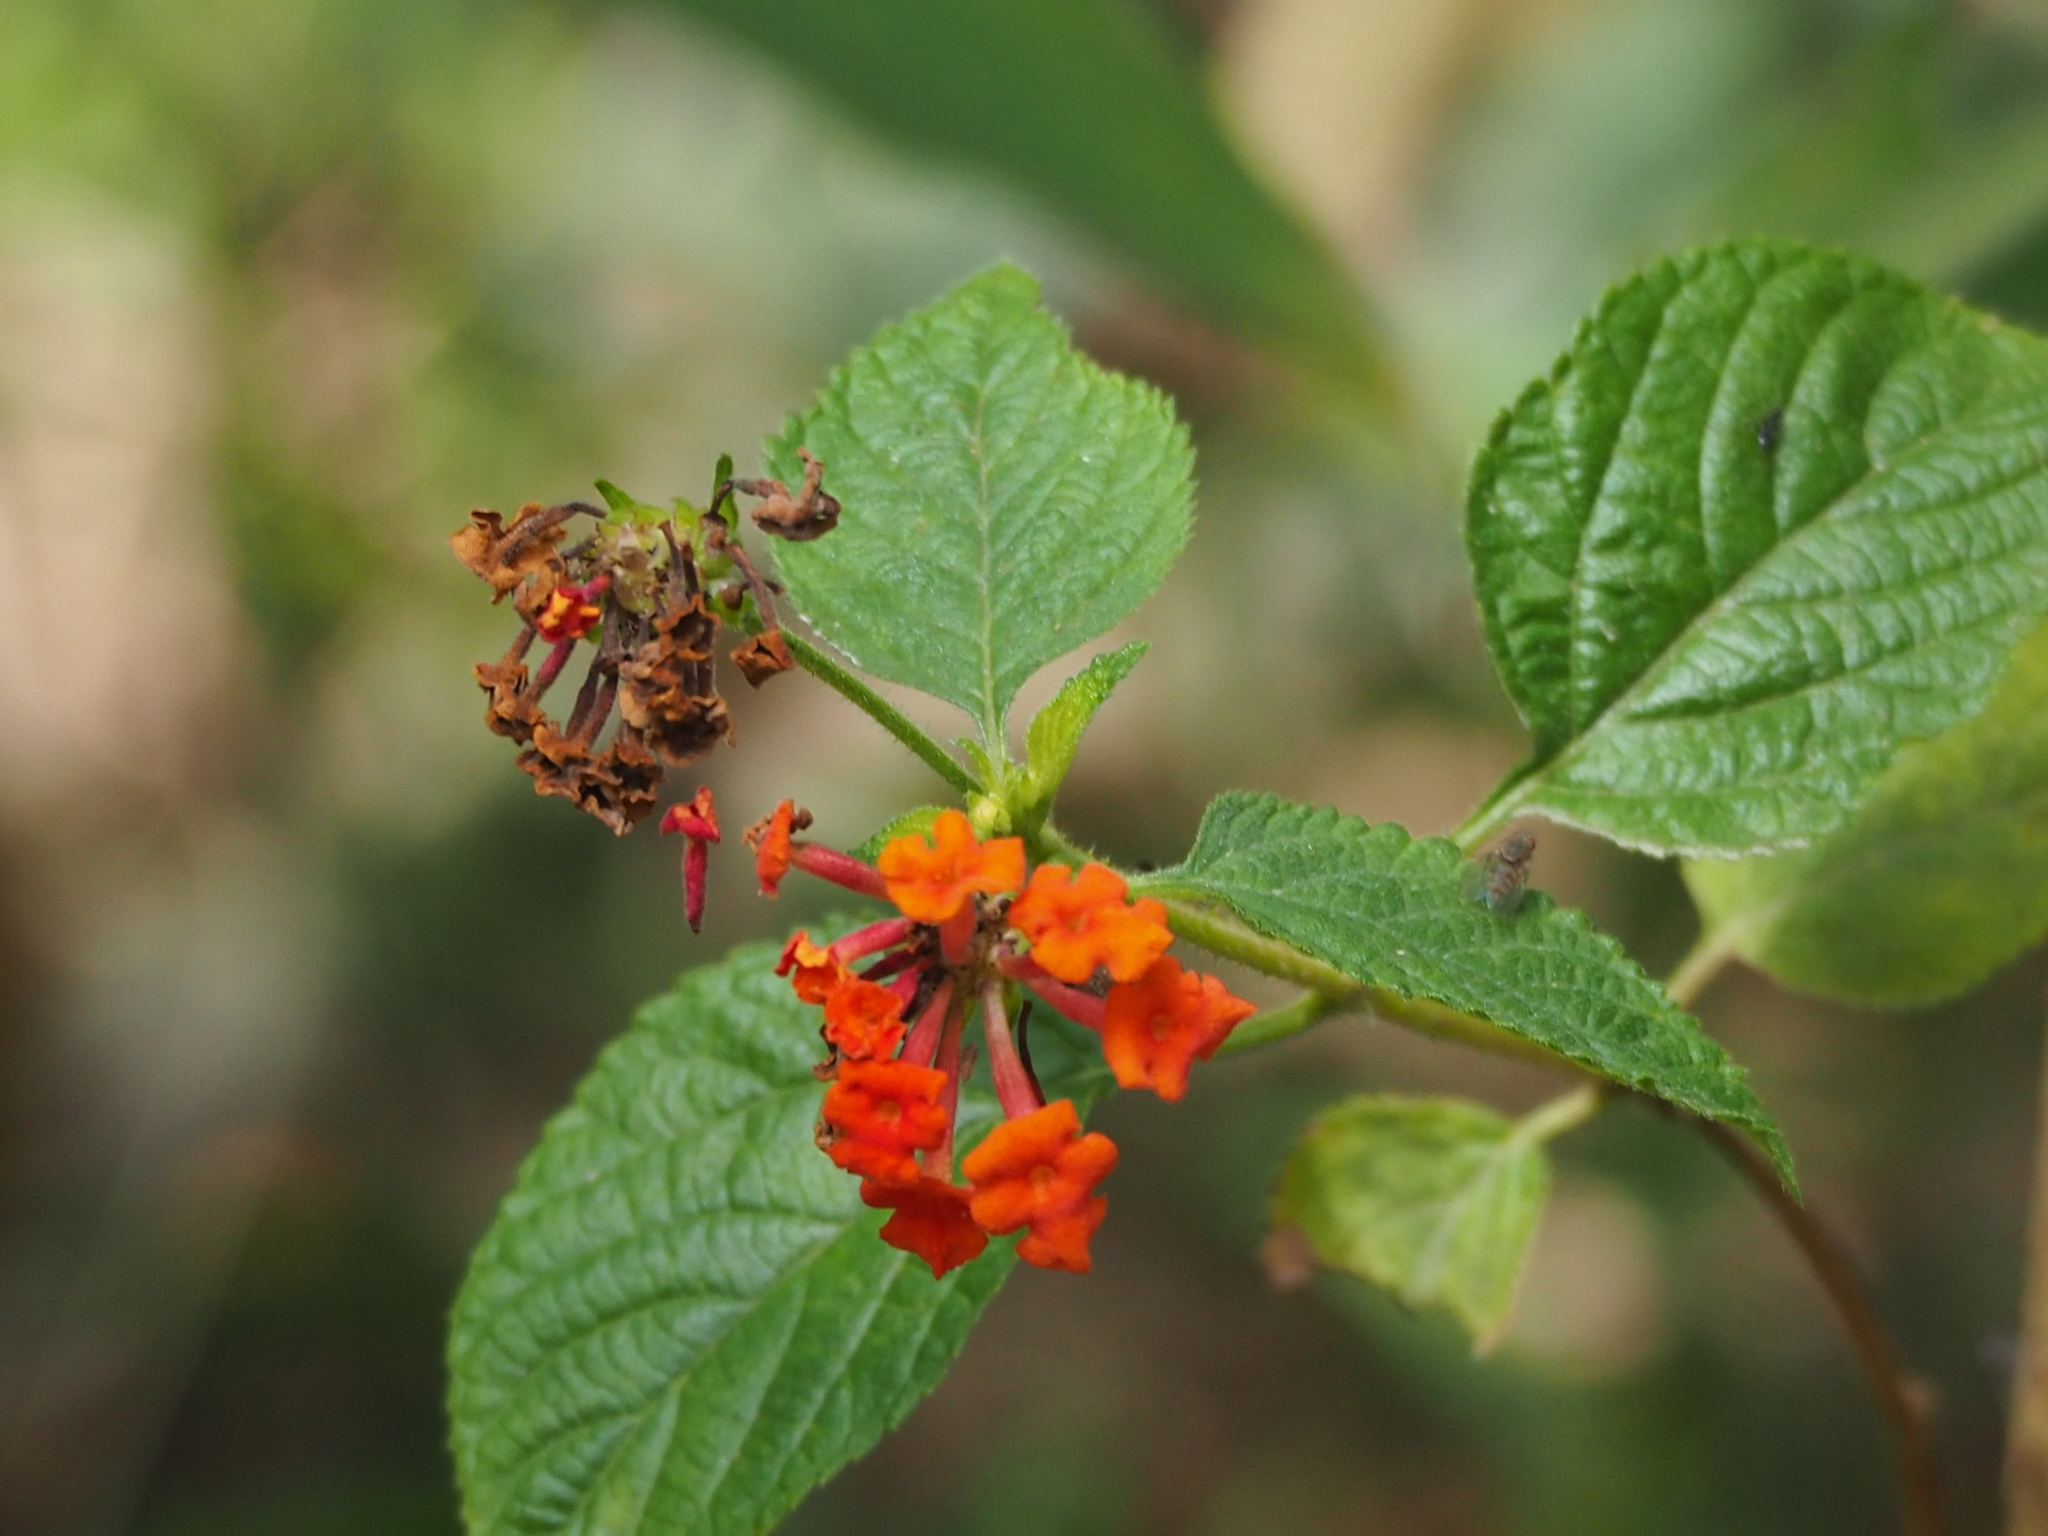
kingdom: Plantae
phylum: Tracheophyta
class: Magnoliopsida
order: Lamiales
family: Verbenaceae
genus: Lantana
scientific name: Lantana camara
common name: Lantana
